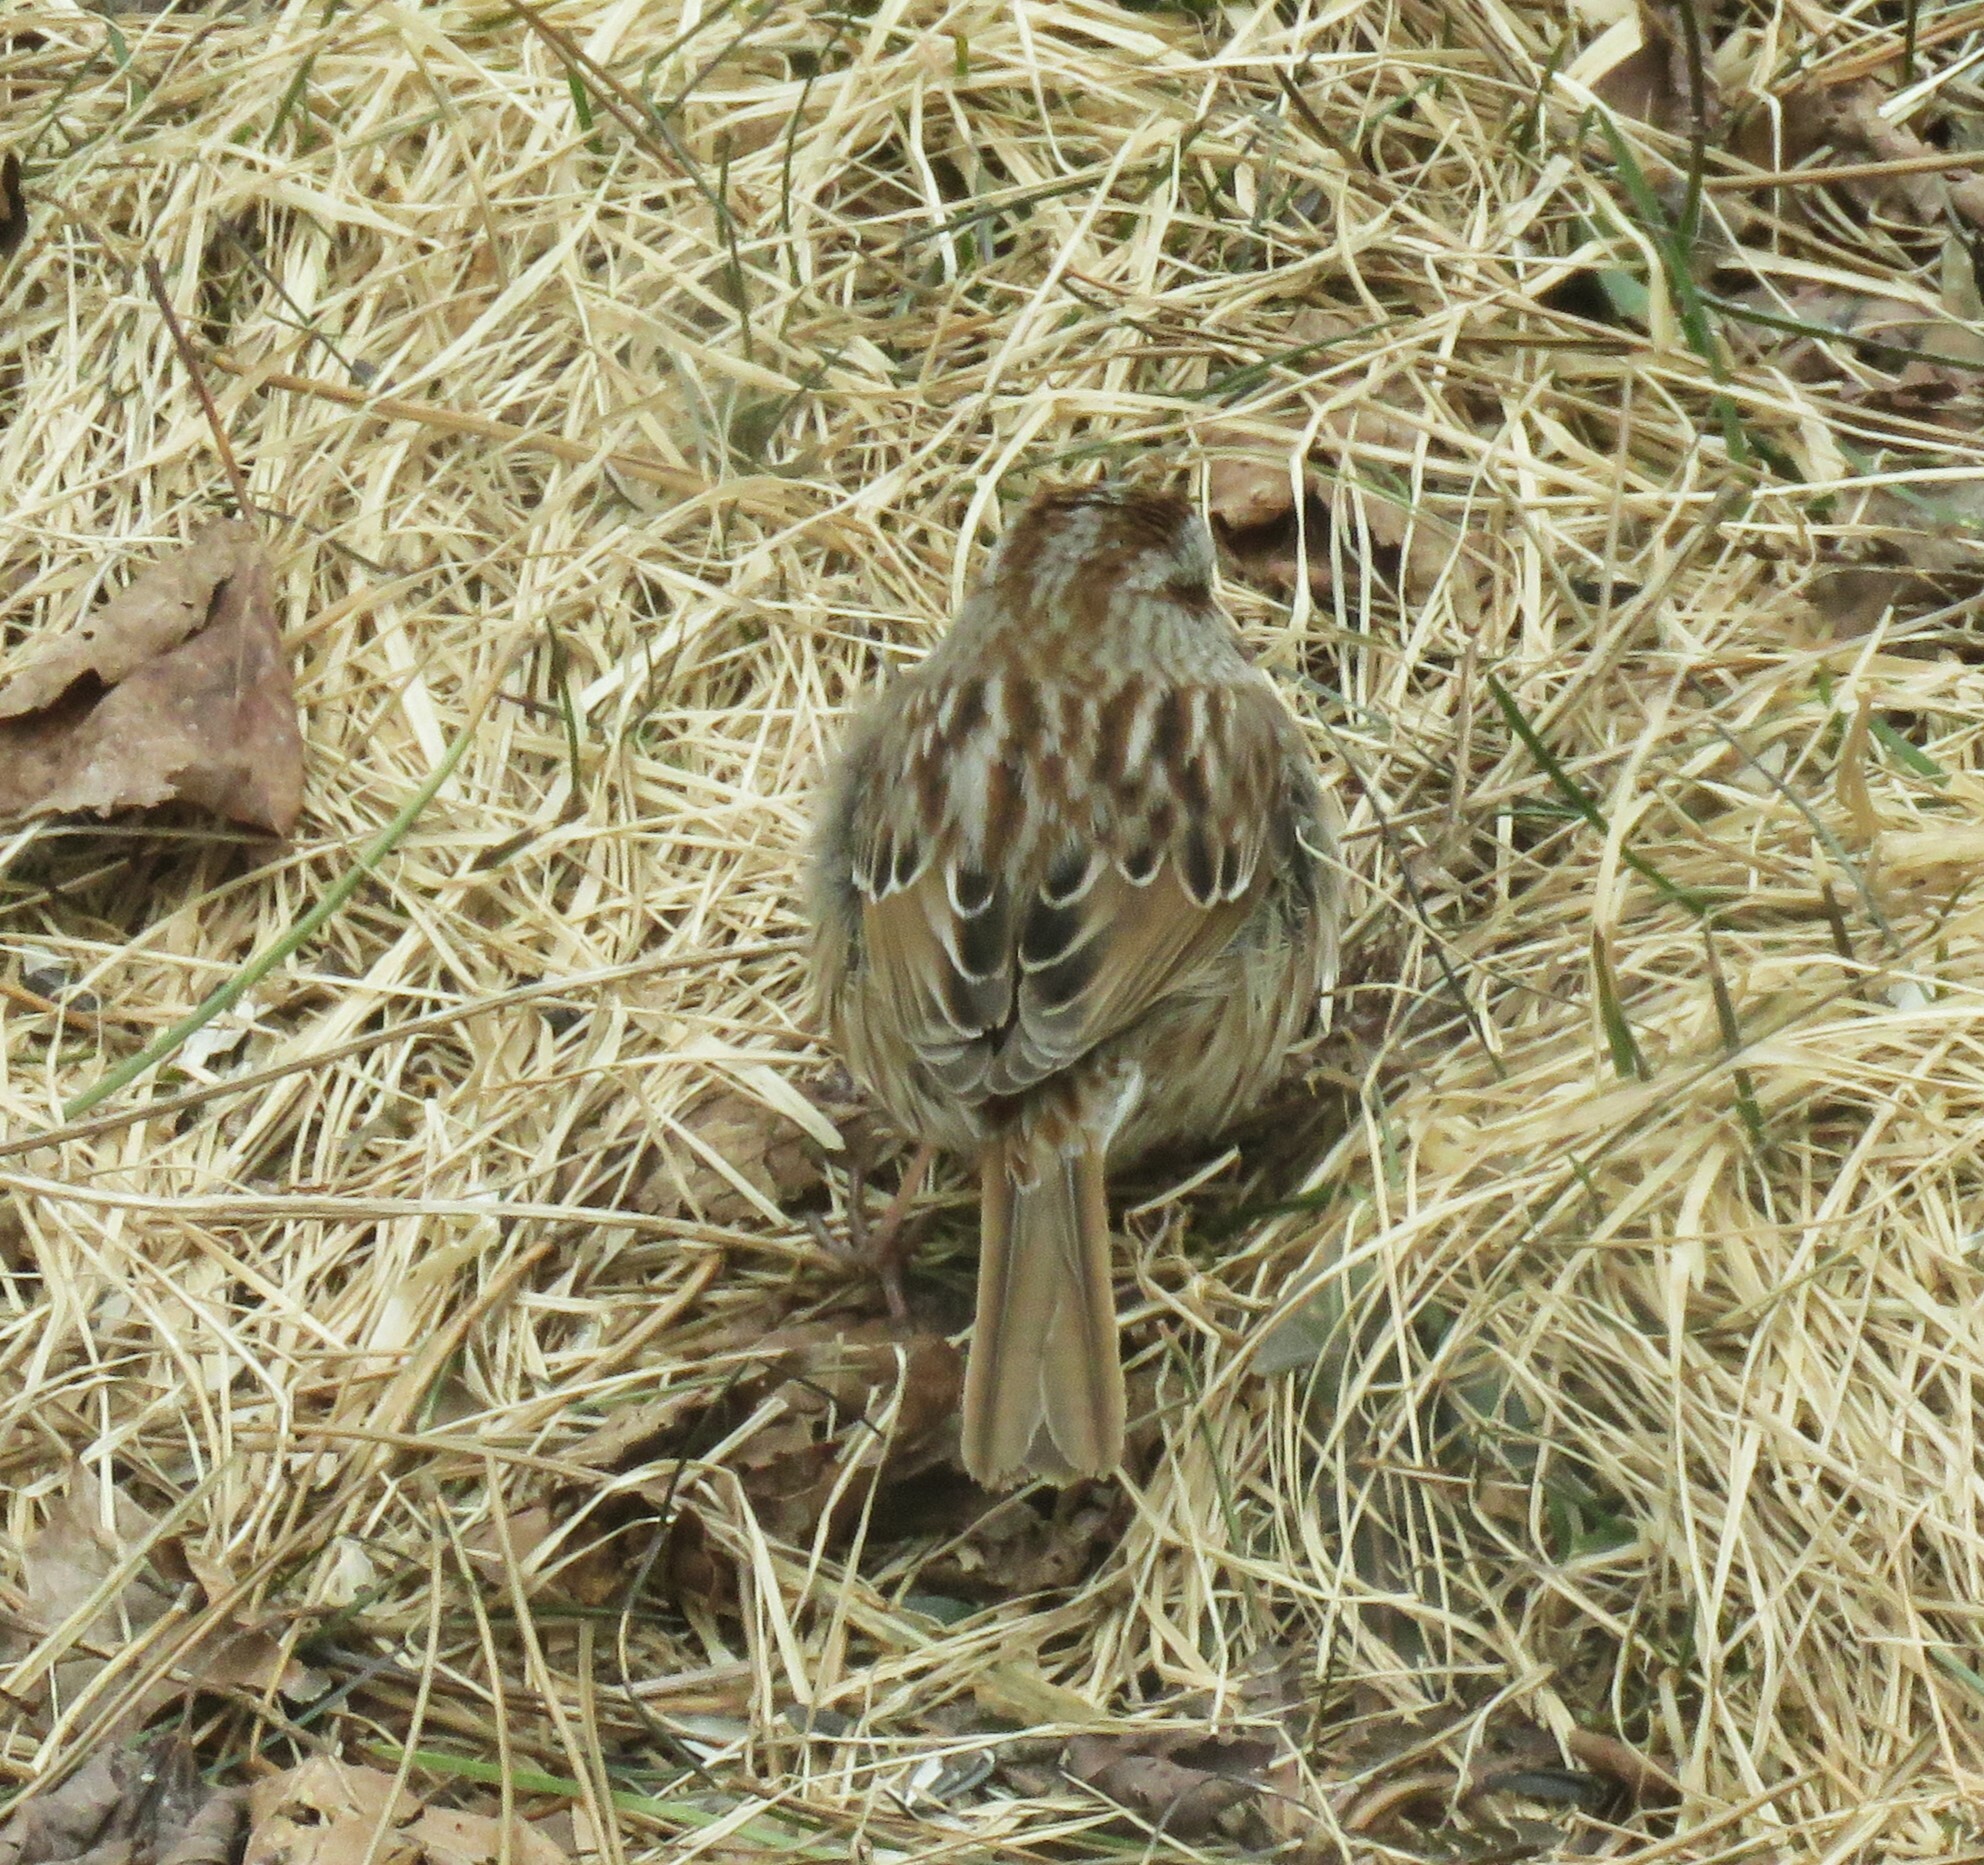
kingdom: Animalia
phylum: Chordata
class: Aves
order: Passeriformes
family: Passerellidae
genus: Melospiza
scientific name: Melospiza melodia
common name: Song sparrow
